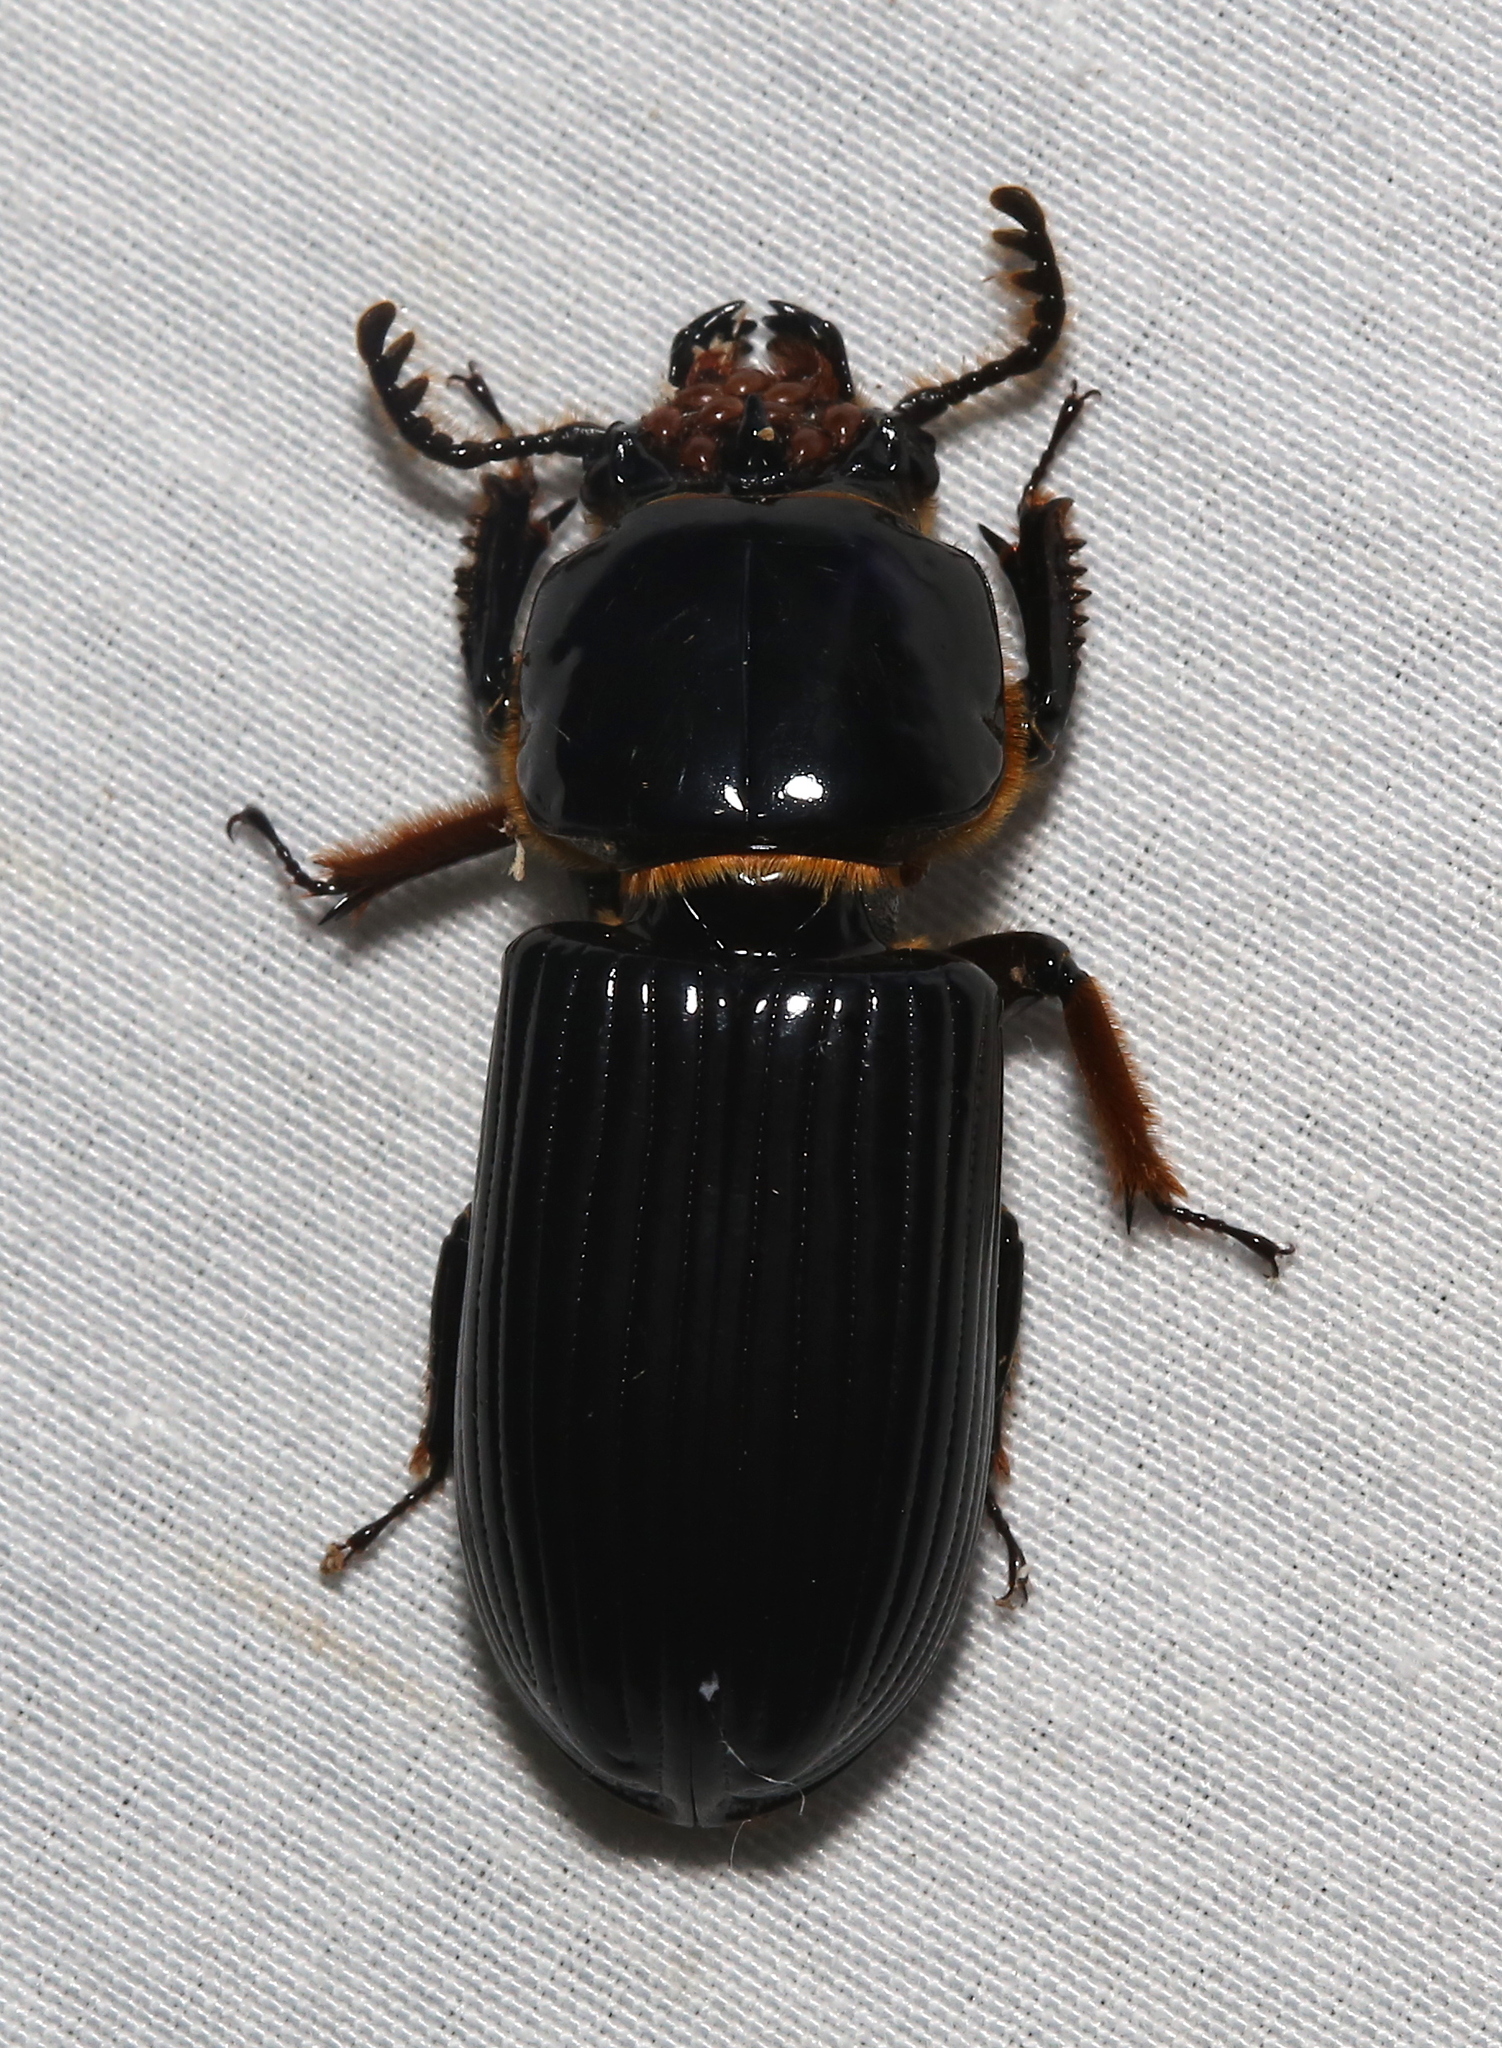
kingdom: Animalia
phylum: Arthropoda
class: Insecta
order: Coleoptera
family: Passalidae
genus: Odontotaenius
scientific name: Odontotaenius disjunctus
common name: Patent leather beetle
